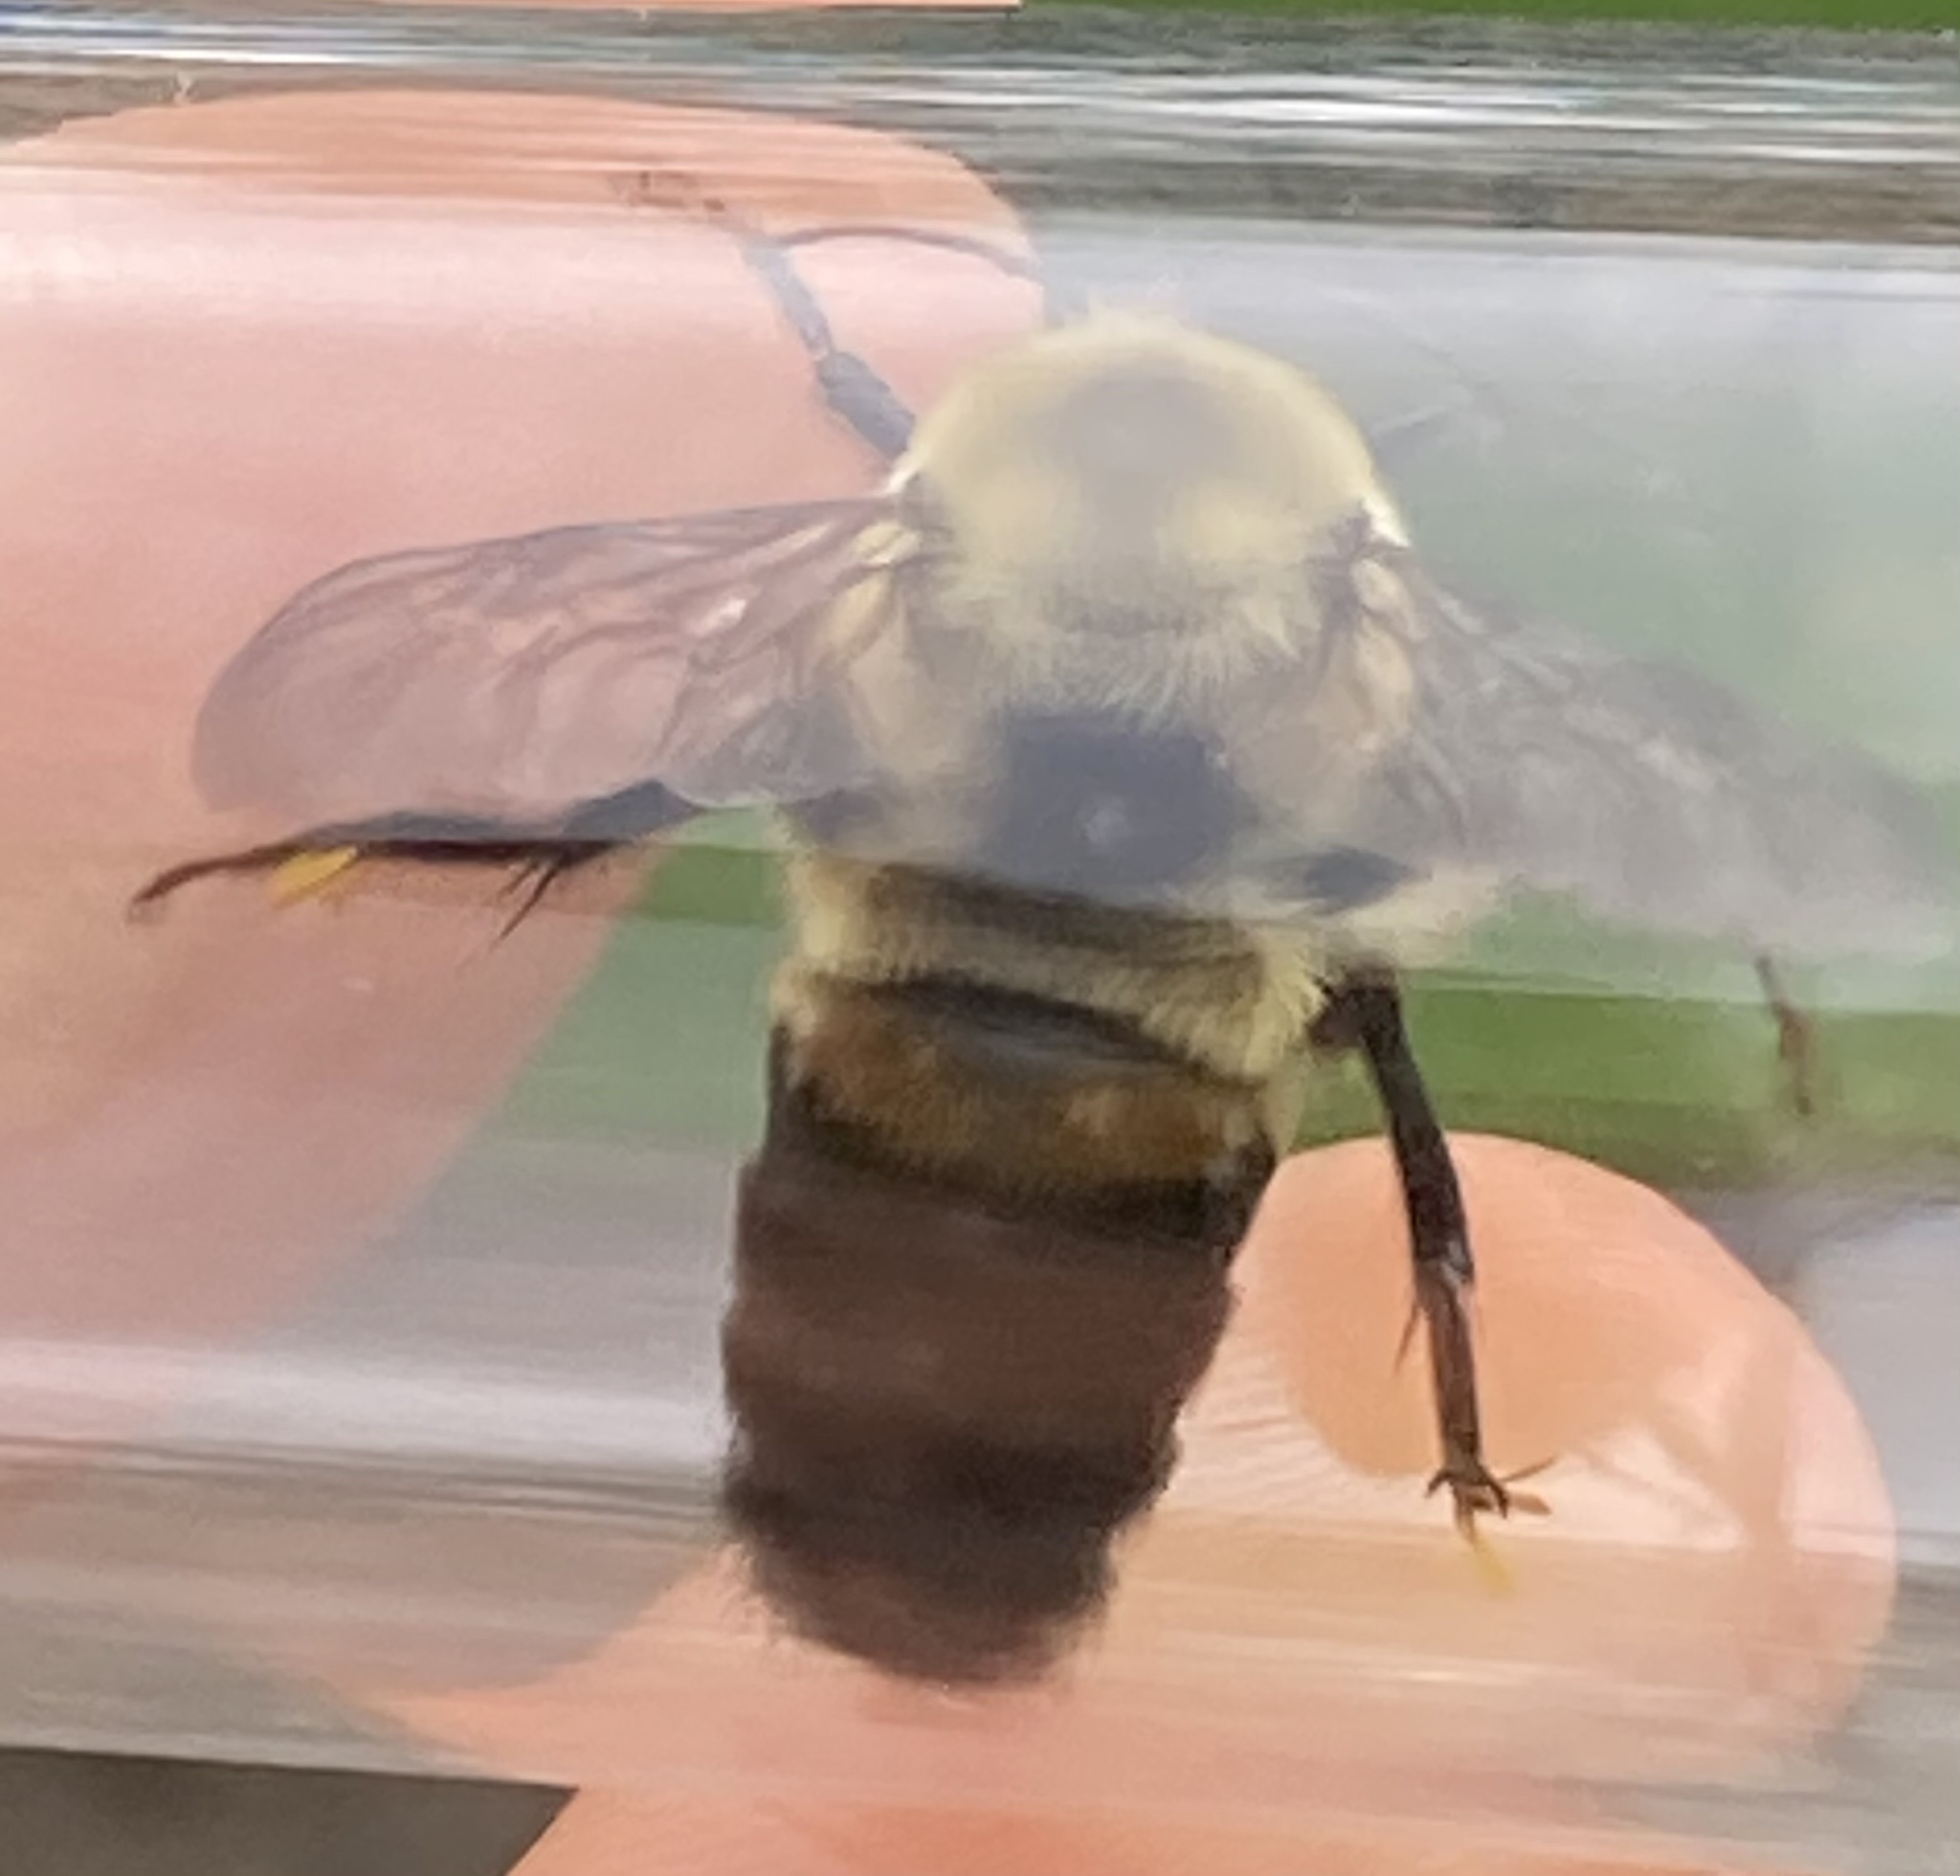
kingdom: Animalia
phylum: Arthropoda
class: Insecta
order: Hymenoptera
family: Apidae
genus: Bombus
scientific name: Bombus griseocollis
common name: Brown-belted bumble bee
